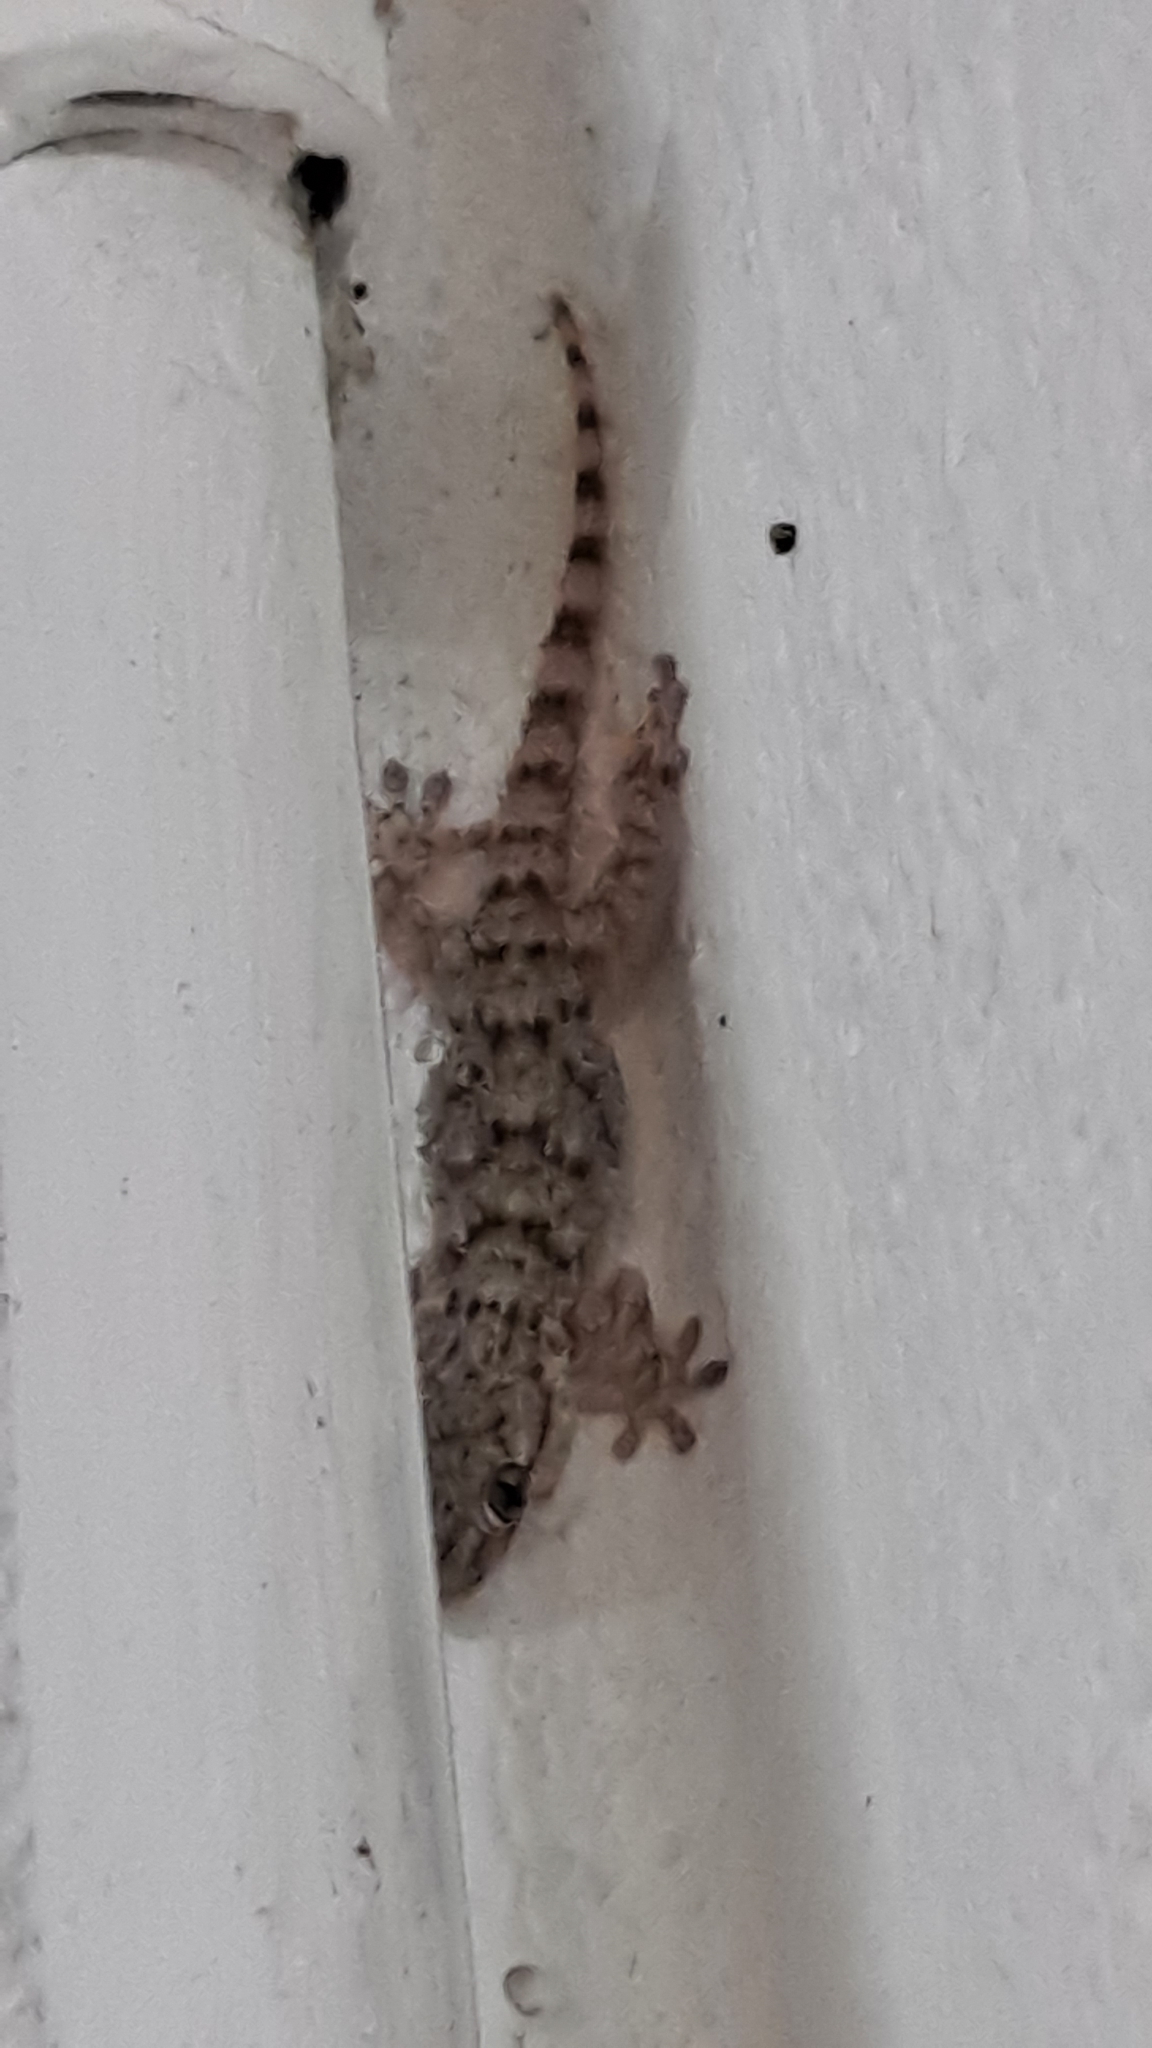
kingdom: Animalia
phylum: Chordata
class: Squamata
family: Phyllodactylidae
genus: Tarentola
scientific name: Tarentola mauritanica
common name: Moorish gecko
